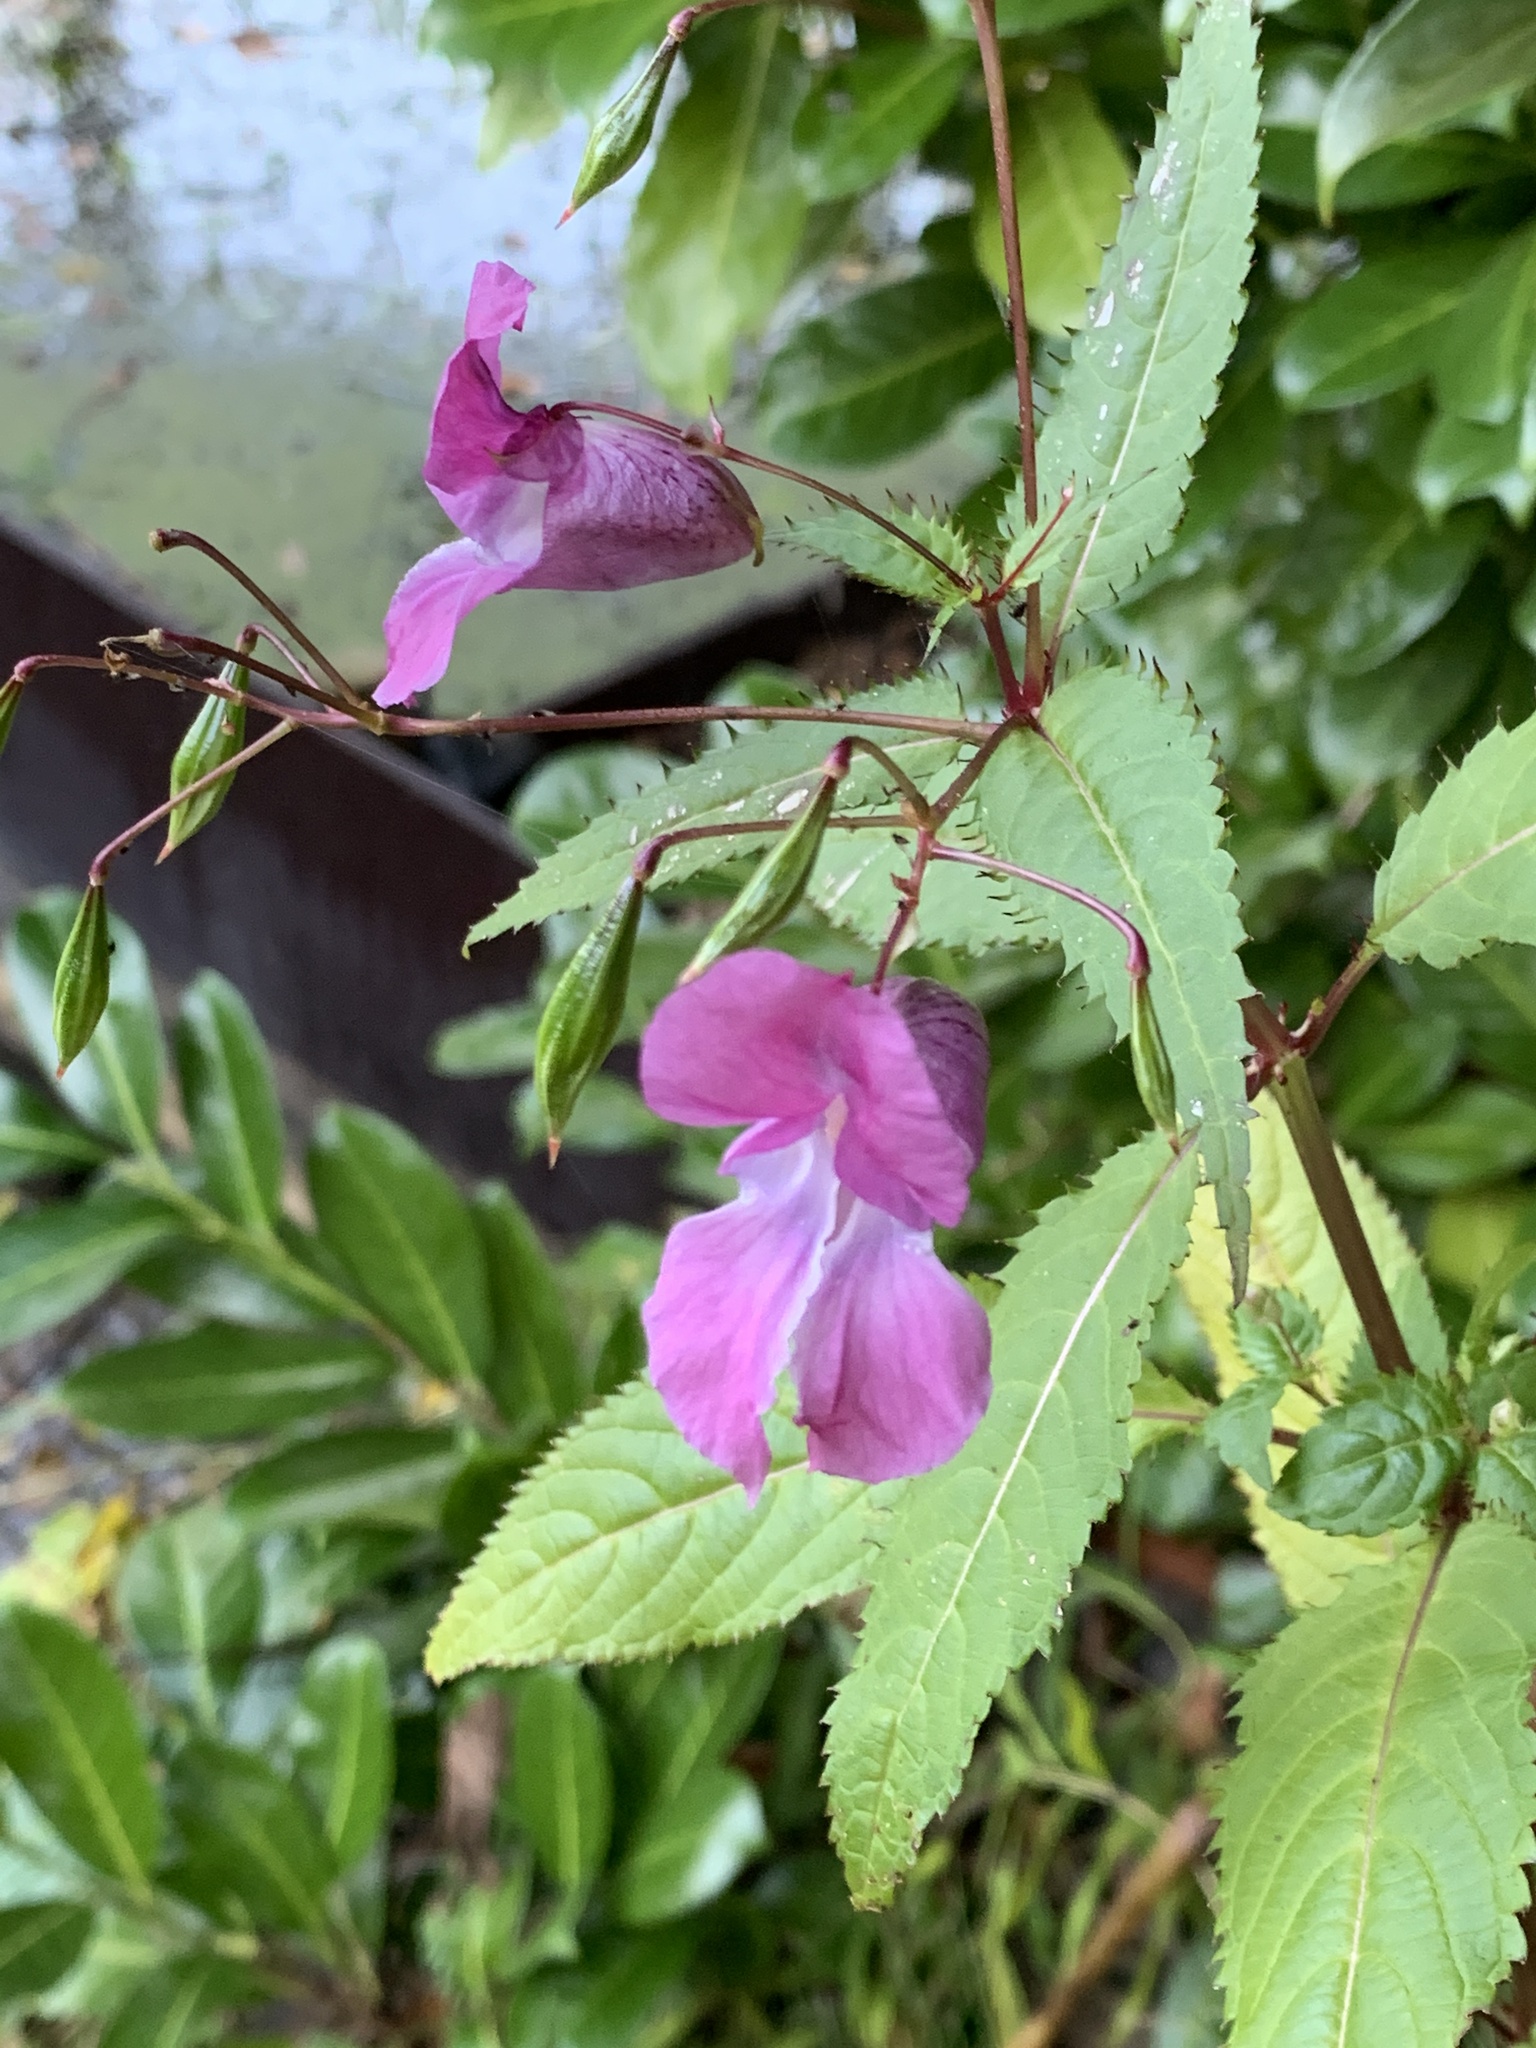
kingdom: Plantae
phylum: Tracheophyta
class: Magnoliopsida
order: Ericales
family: Balsaminaceae
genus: Impatiens
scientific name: Impatiens glandulifera
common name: Himalayan balsam
